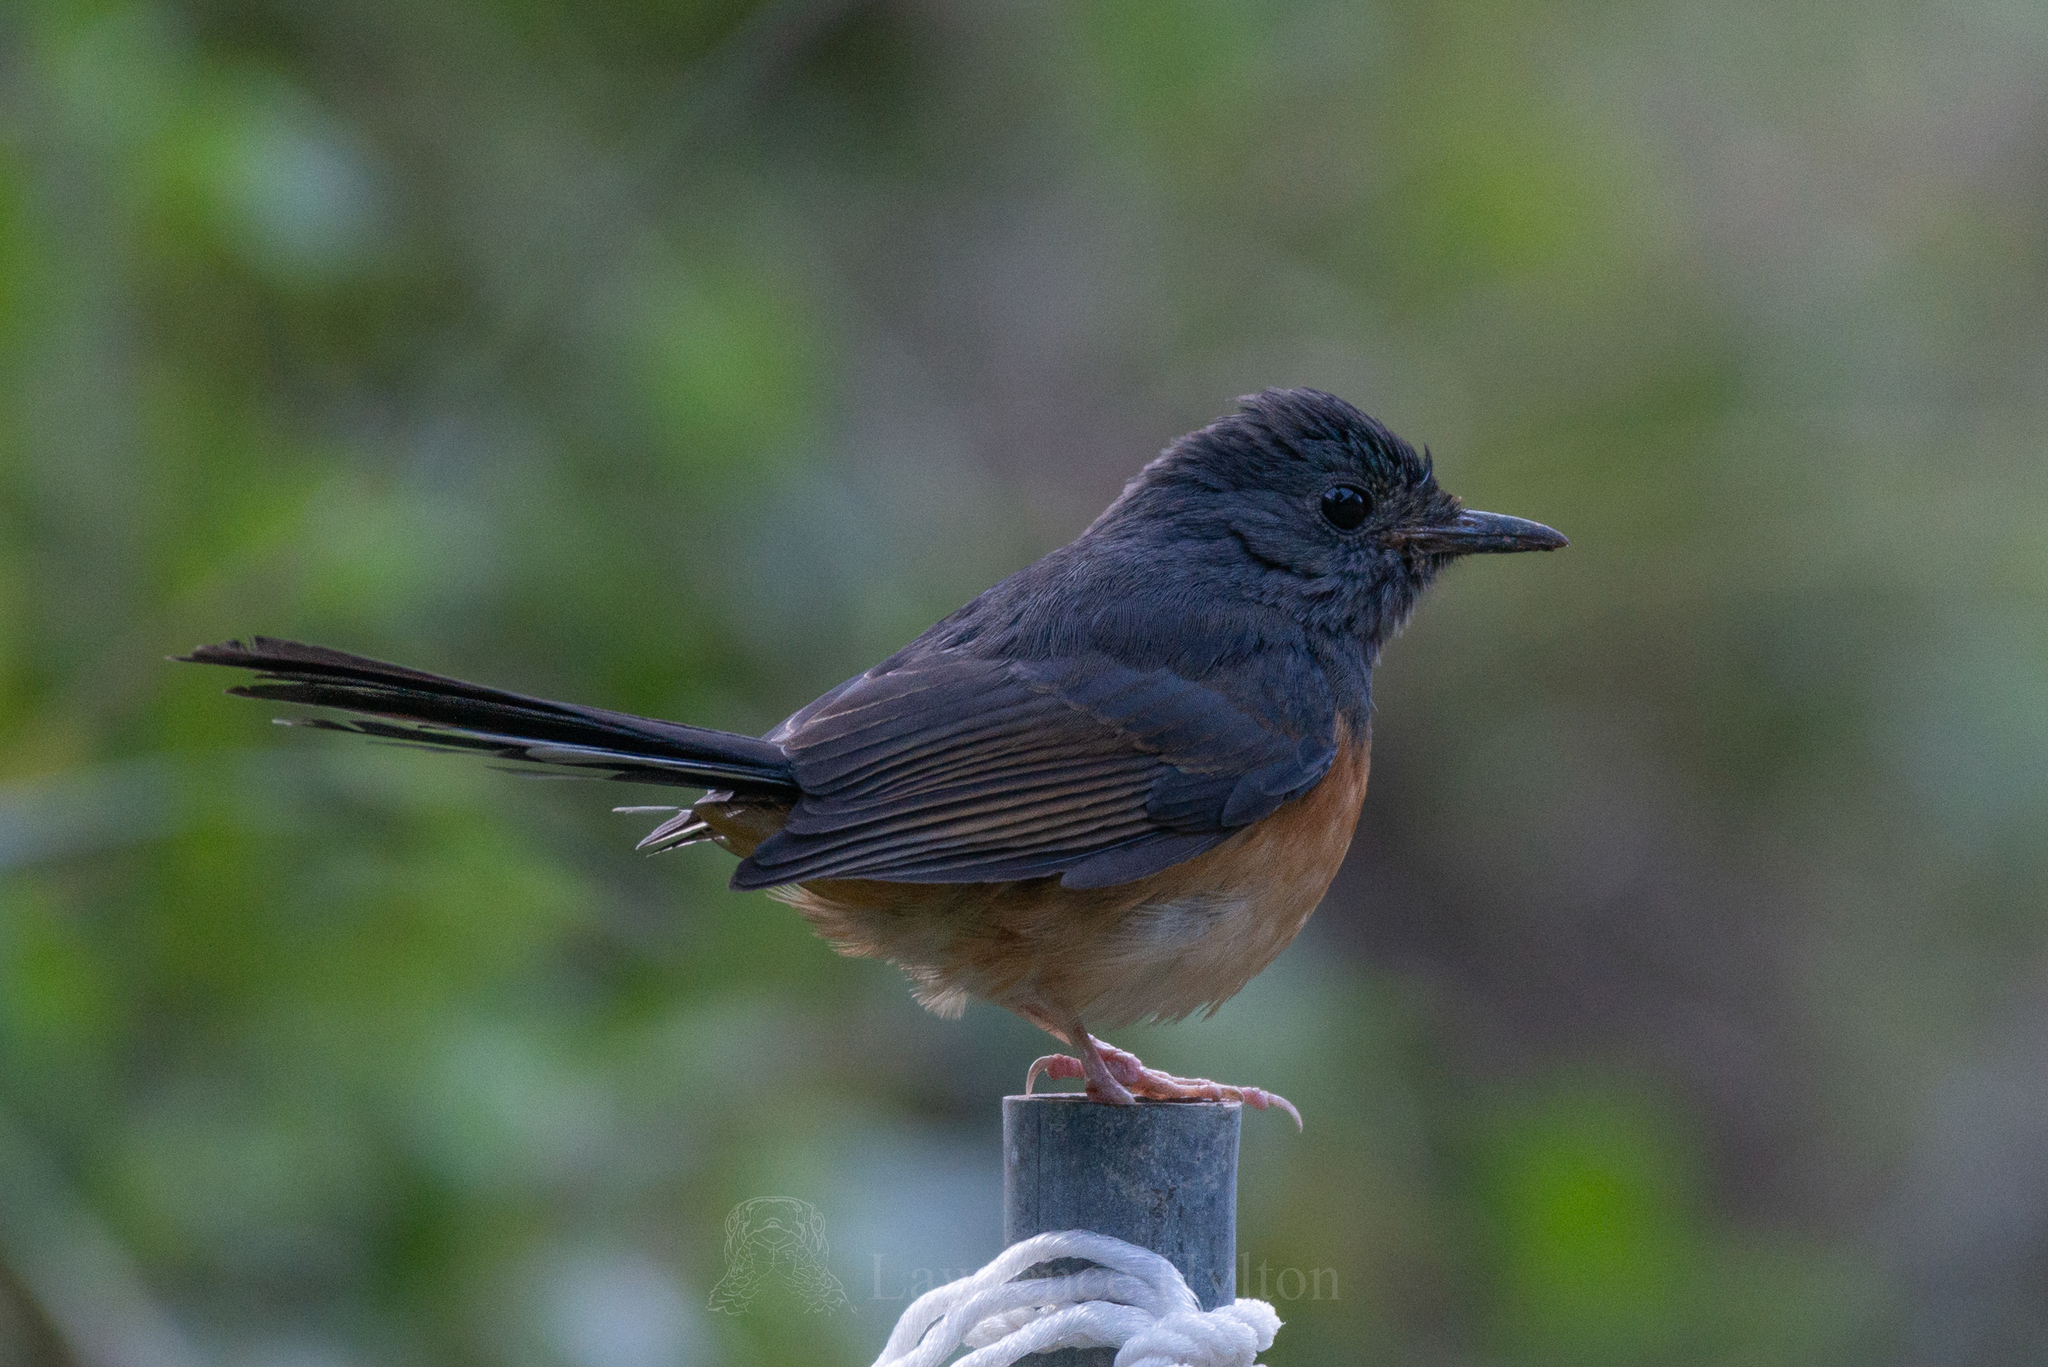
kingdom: Animalia
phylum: Chordata
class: Aves
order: Passeriformes
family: Muscicapidae
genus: Copsychus
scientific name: Copsychus malabaricus
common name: White-rumped shama
